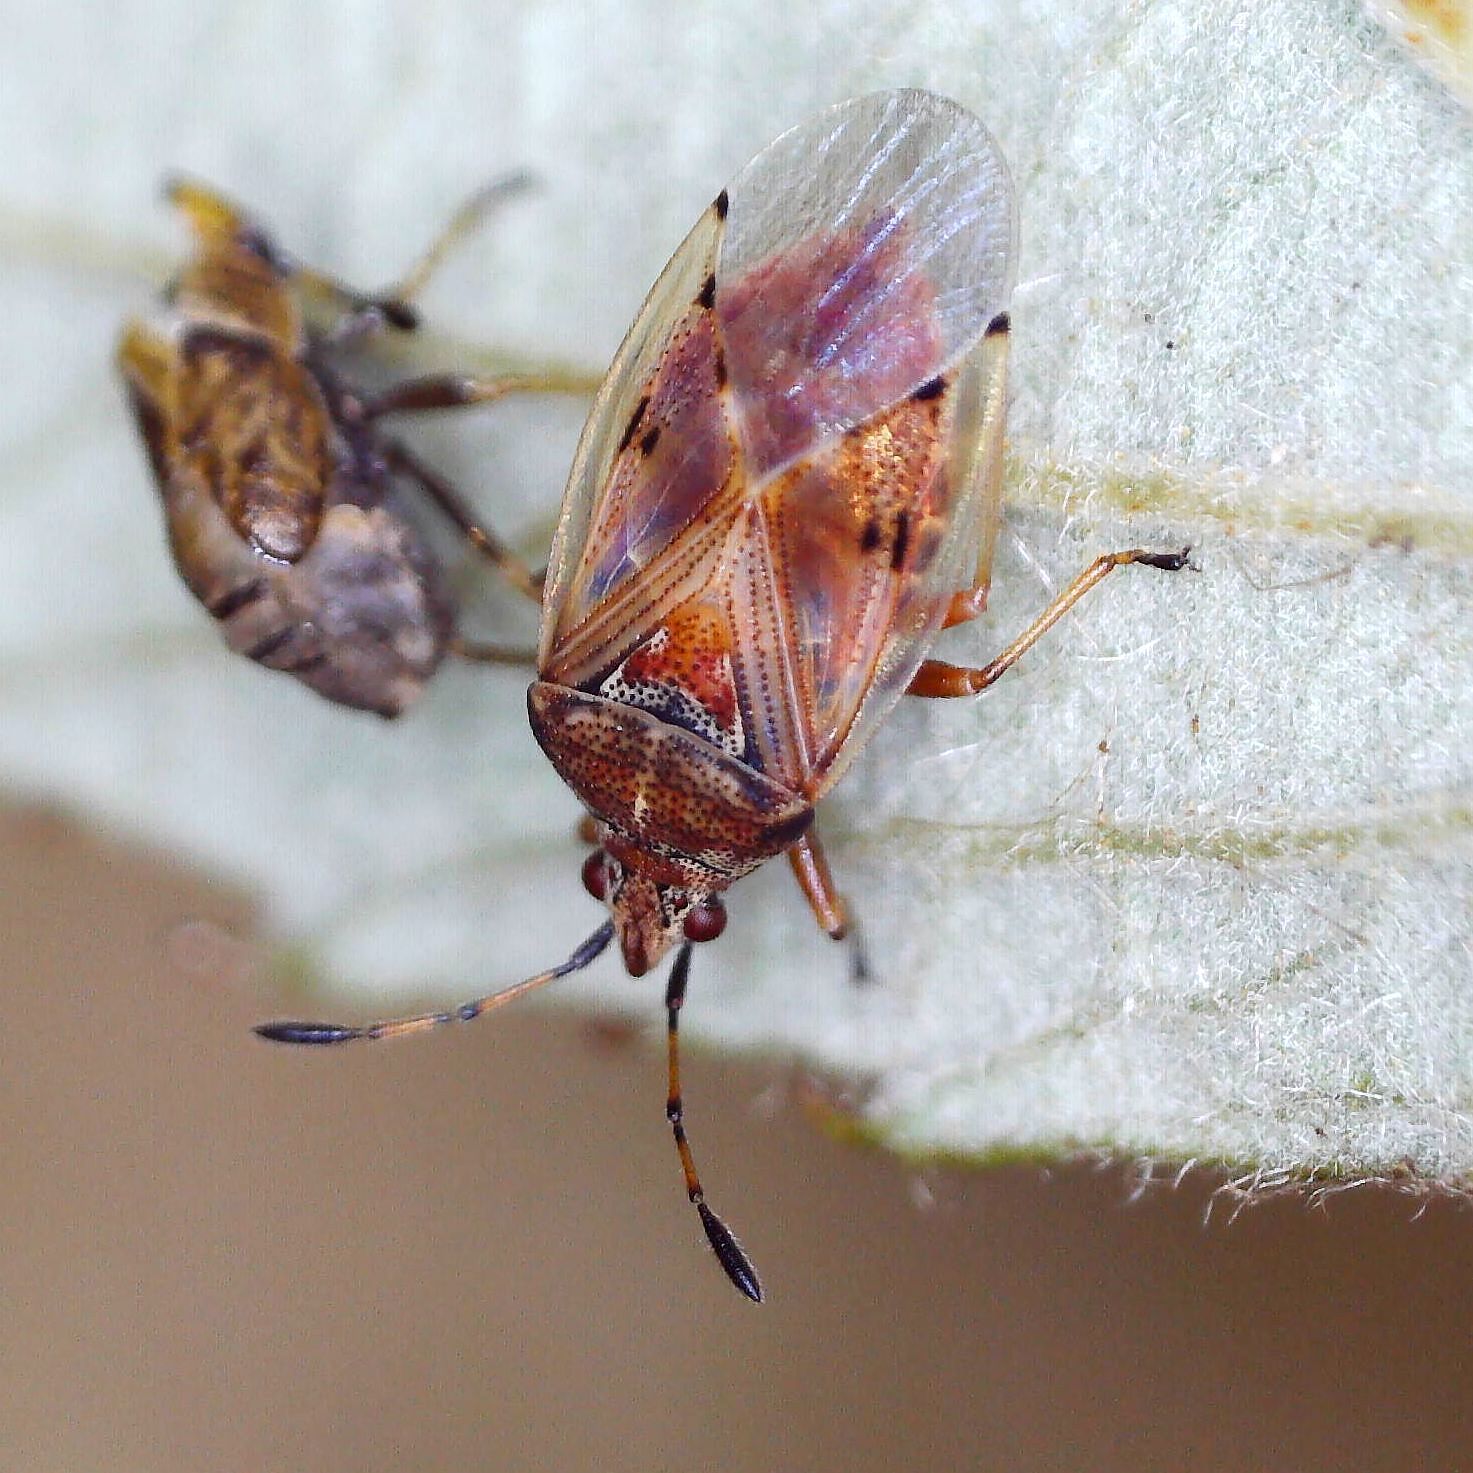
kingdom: Animalia
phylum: Arthropoda
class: Insecta
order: Hemiptera
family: Lygaeidae
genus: Kleidocerys
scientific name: Kleidocerys resedae
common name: Birch catkin bug
